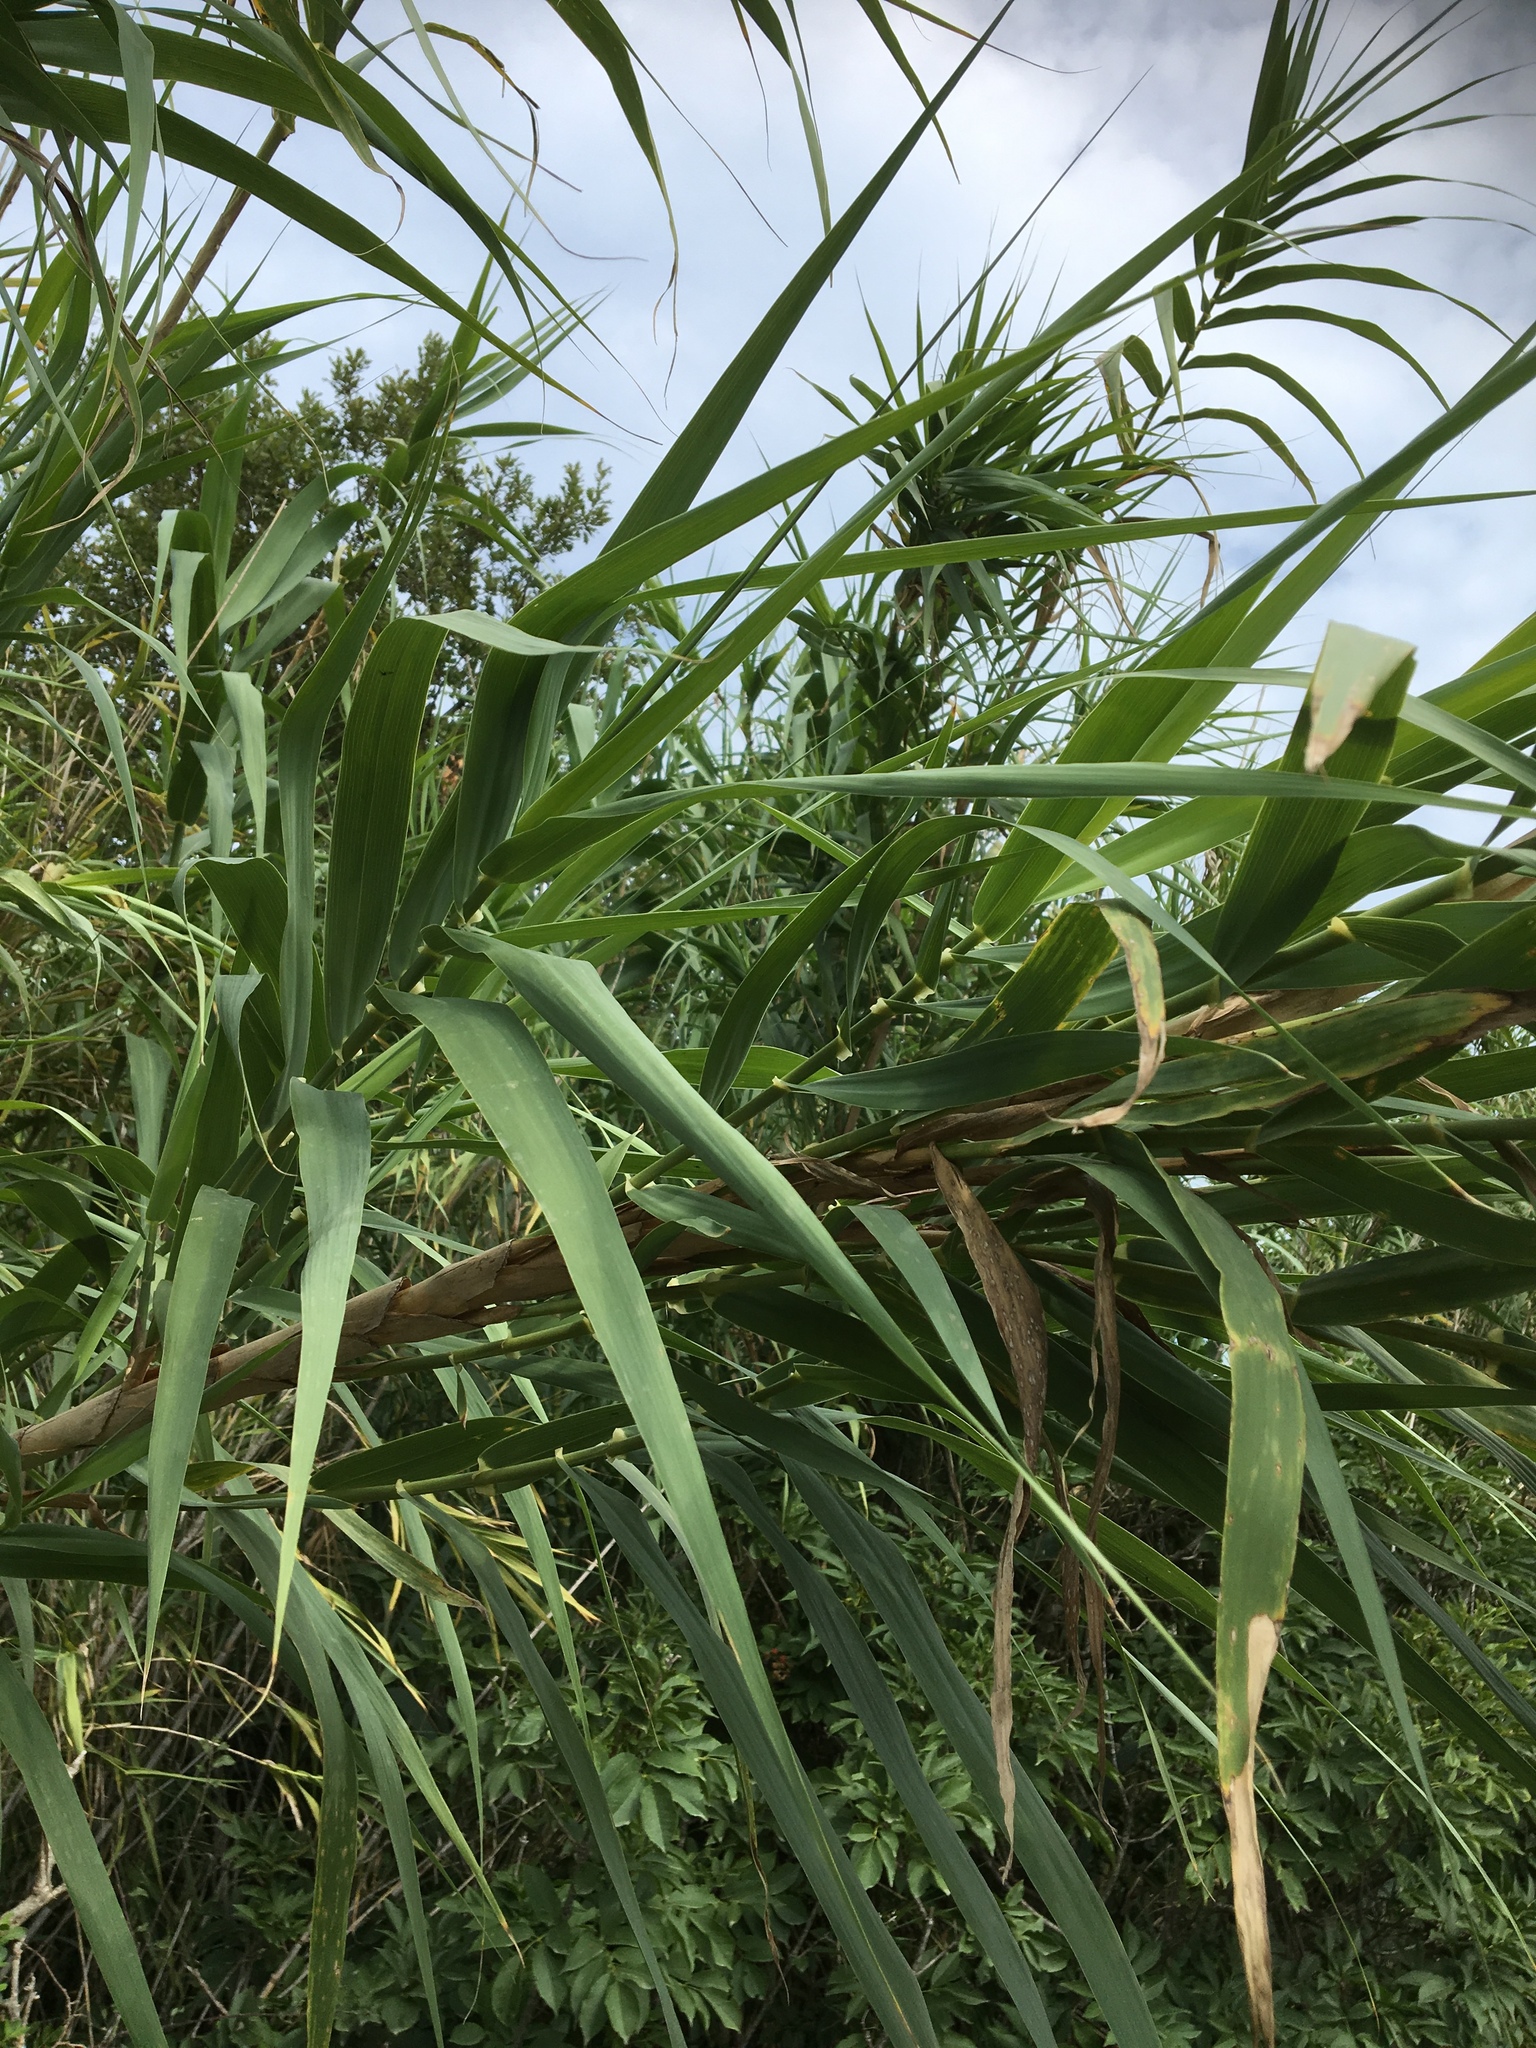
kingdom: Plantae
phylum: Tracheophyta
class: Liliopsida
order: Poales
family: Poaceae
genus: Arundo
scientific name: Arundo donax
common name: Giant reed
